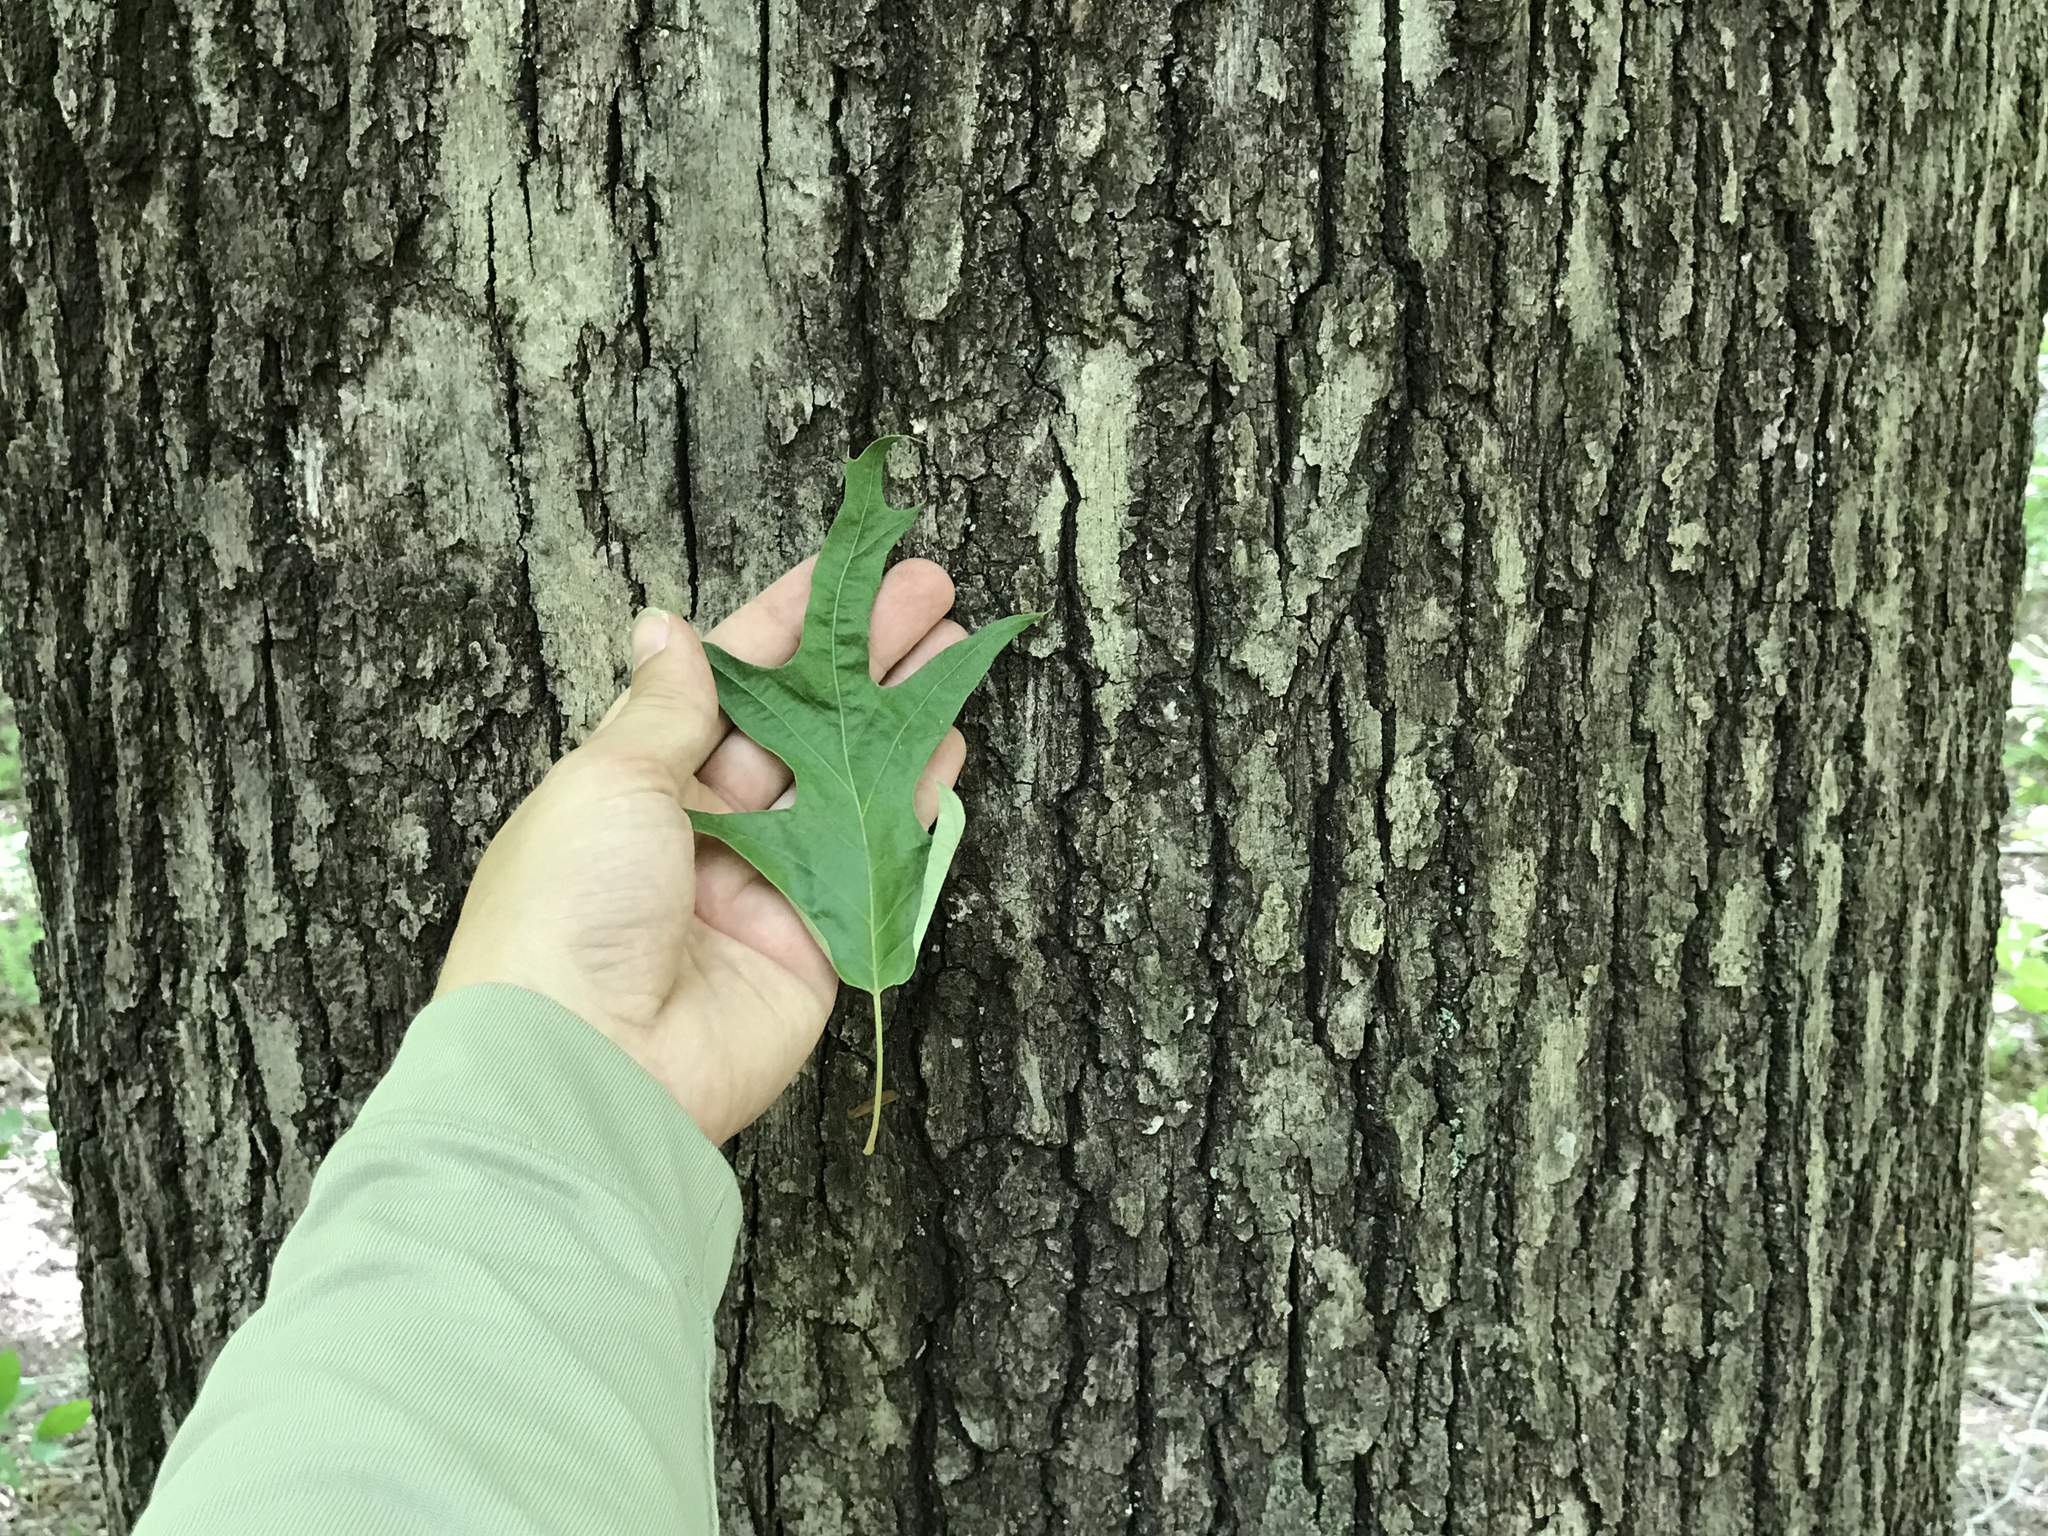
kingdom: Plantae
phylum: Tracheophyta
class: Magnoliopsida
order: Fagales
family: Fagaceae
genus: Quercus
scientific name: Quercus falcata
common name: Southern red oak
